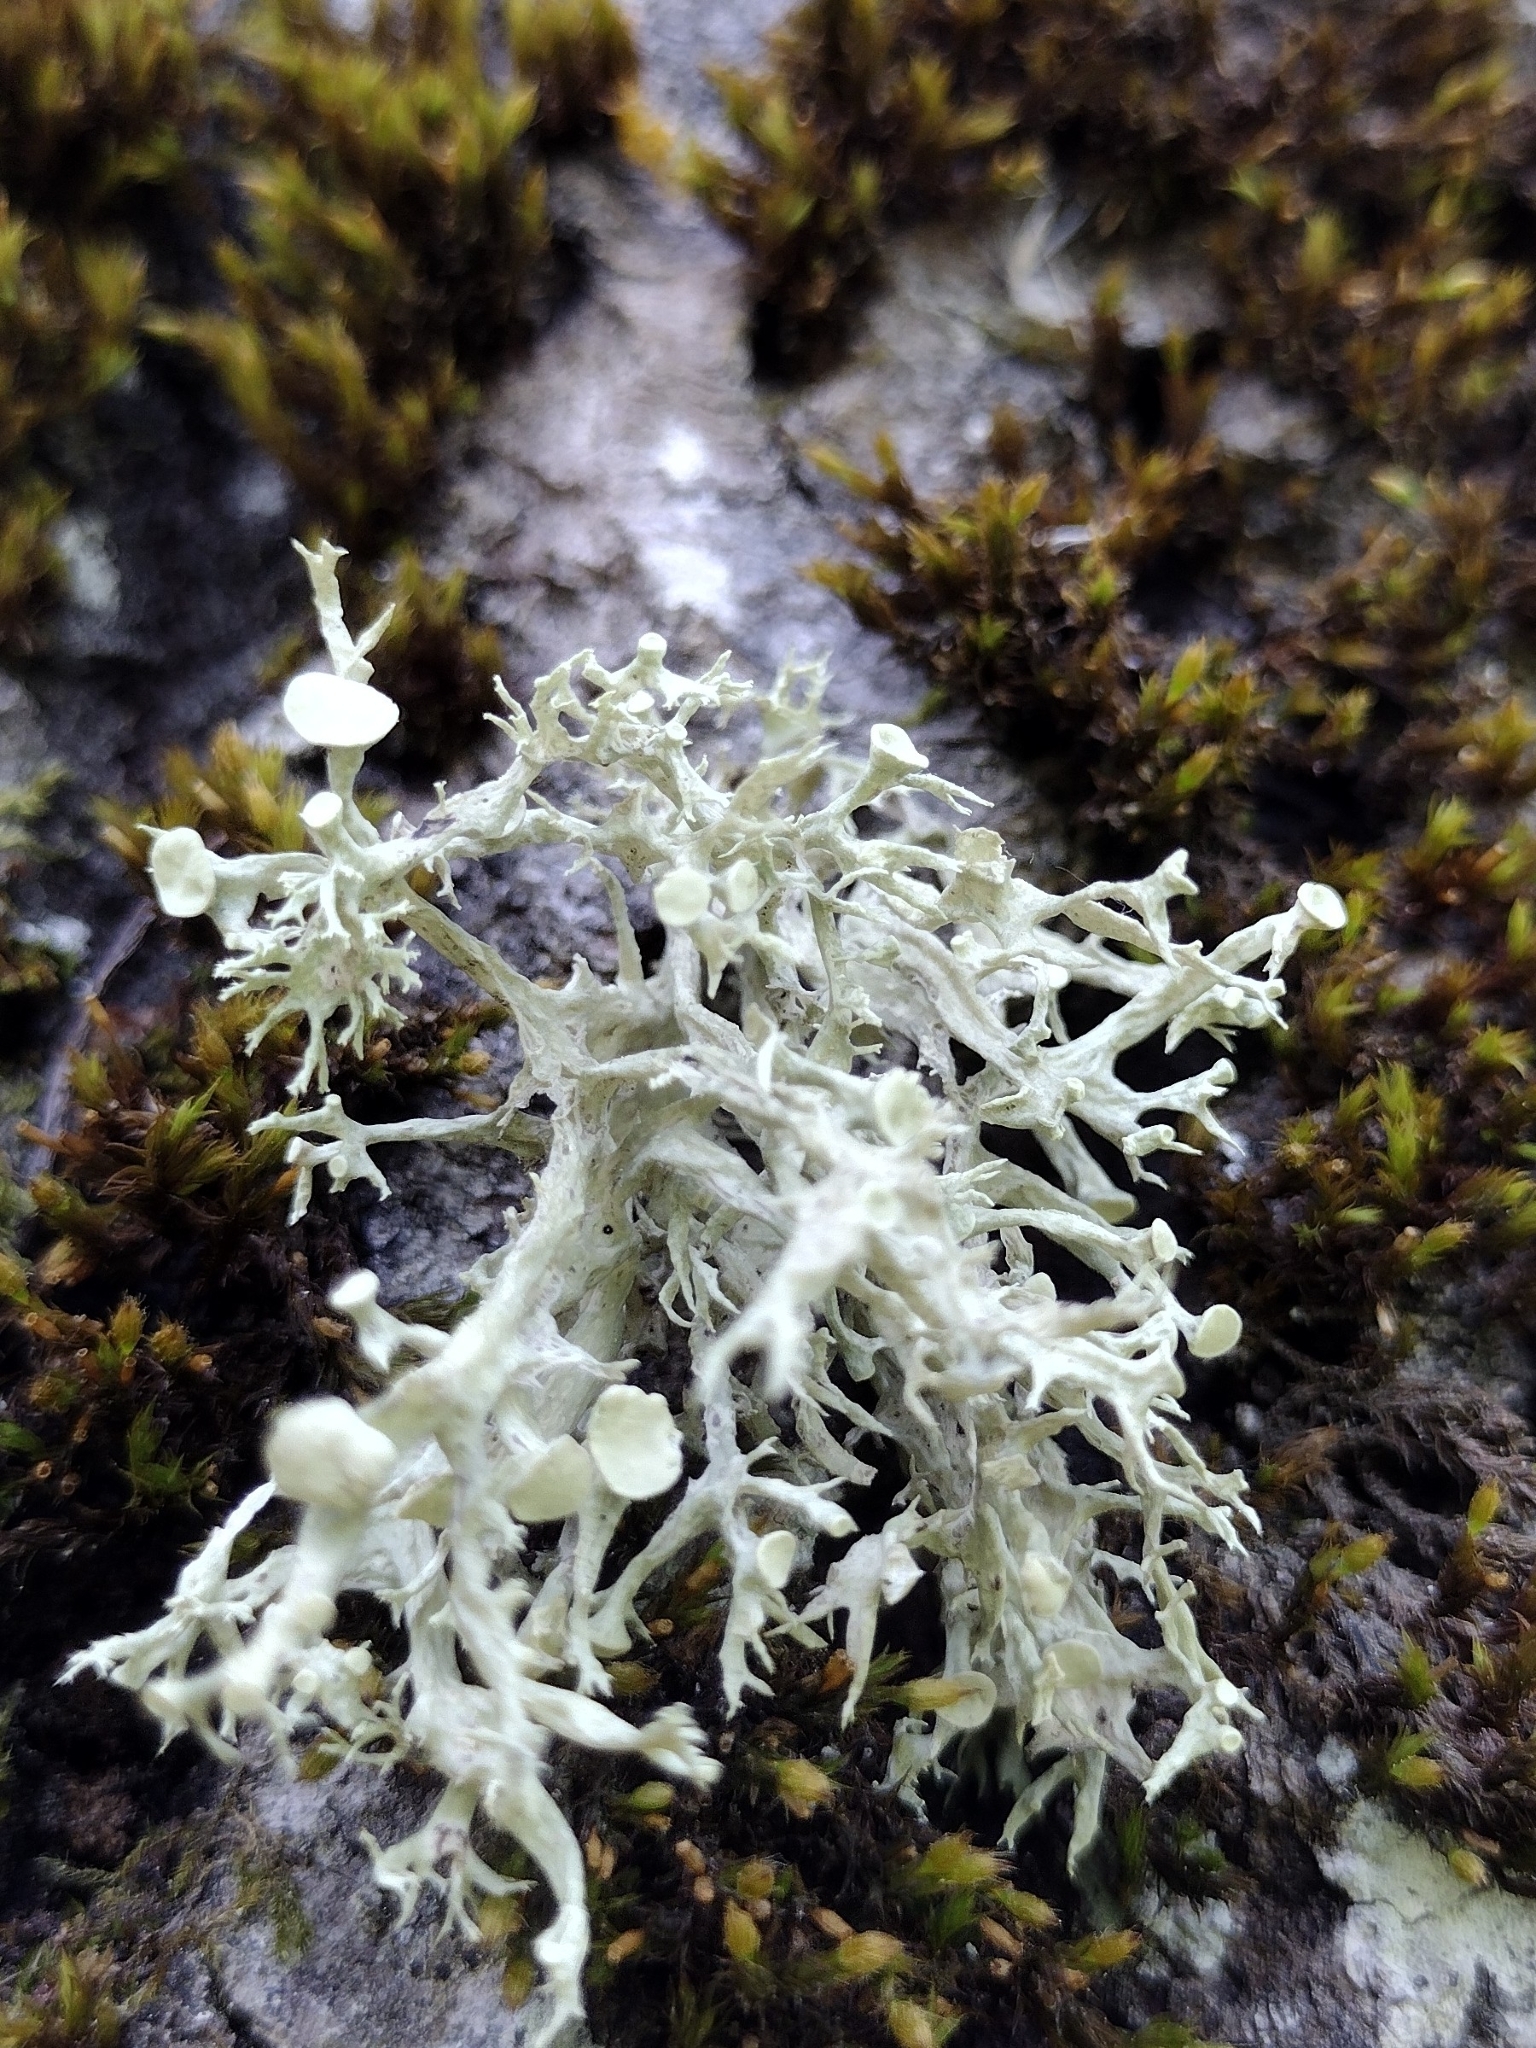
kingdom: Fungi
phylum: Ascomycota
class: Lecanoromycetes
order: Lecanorales
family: Ramalinaceae
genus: Ramalina
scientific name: Ramalina fastigiata
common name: Dotted ribbon lichen
